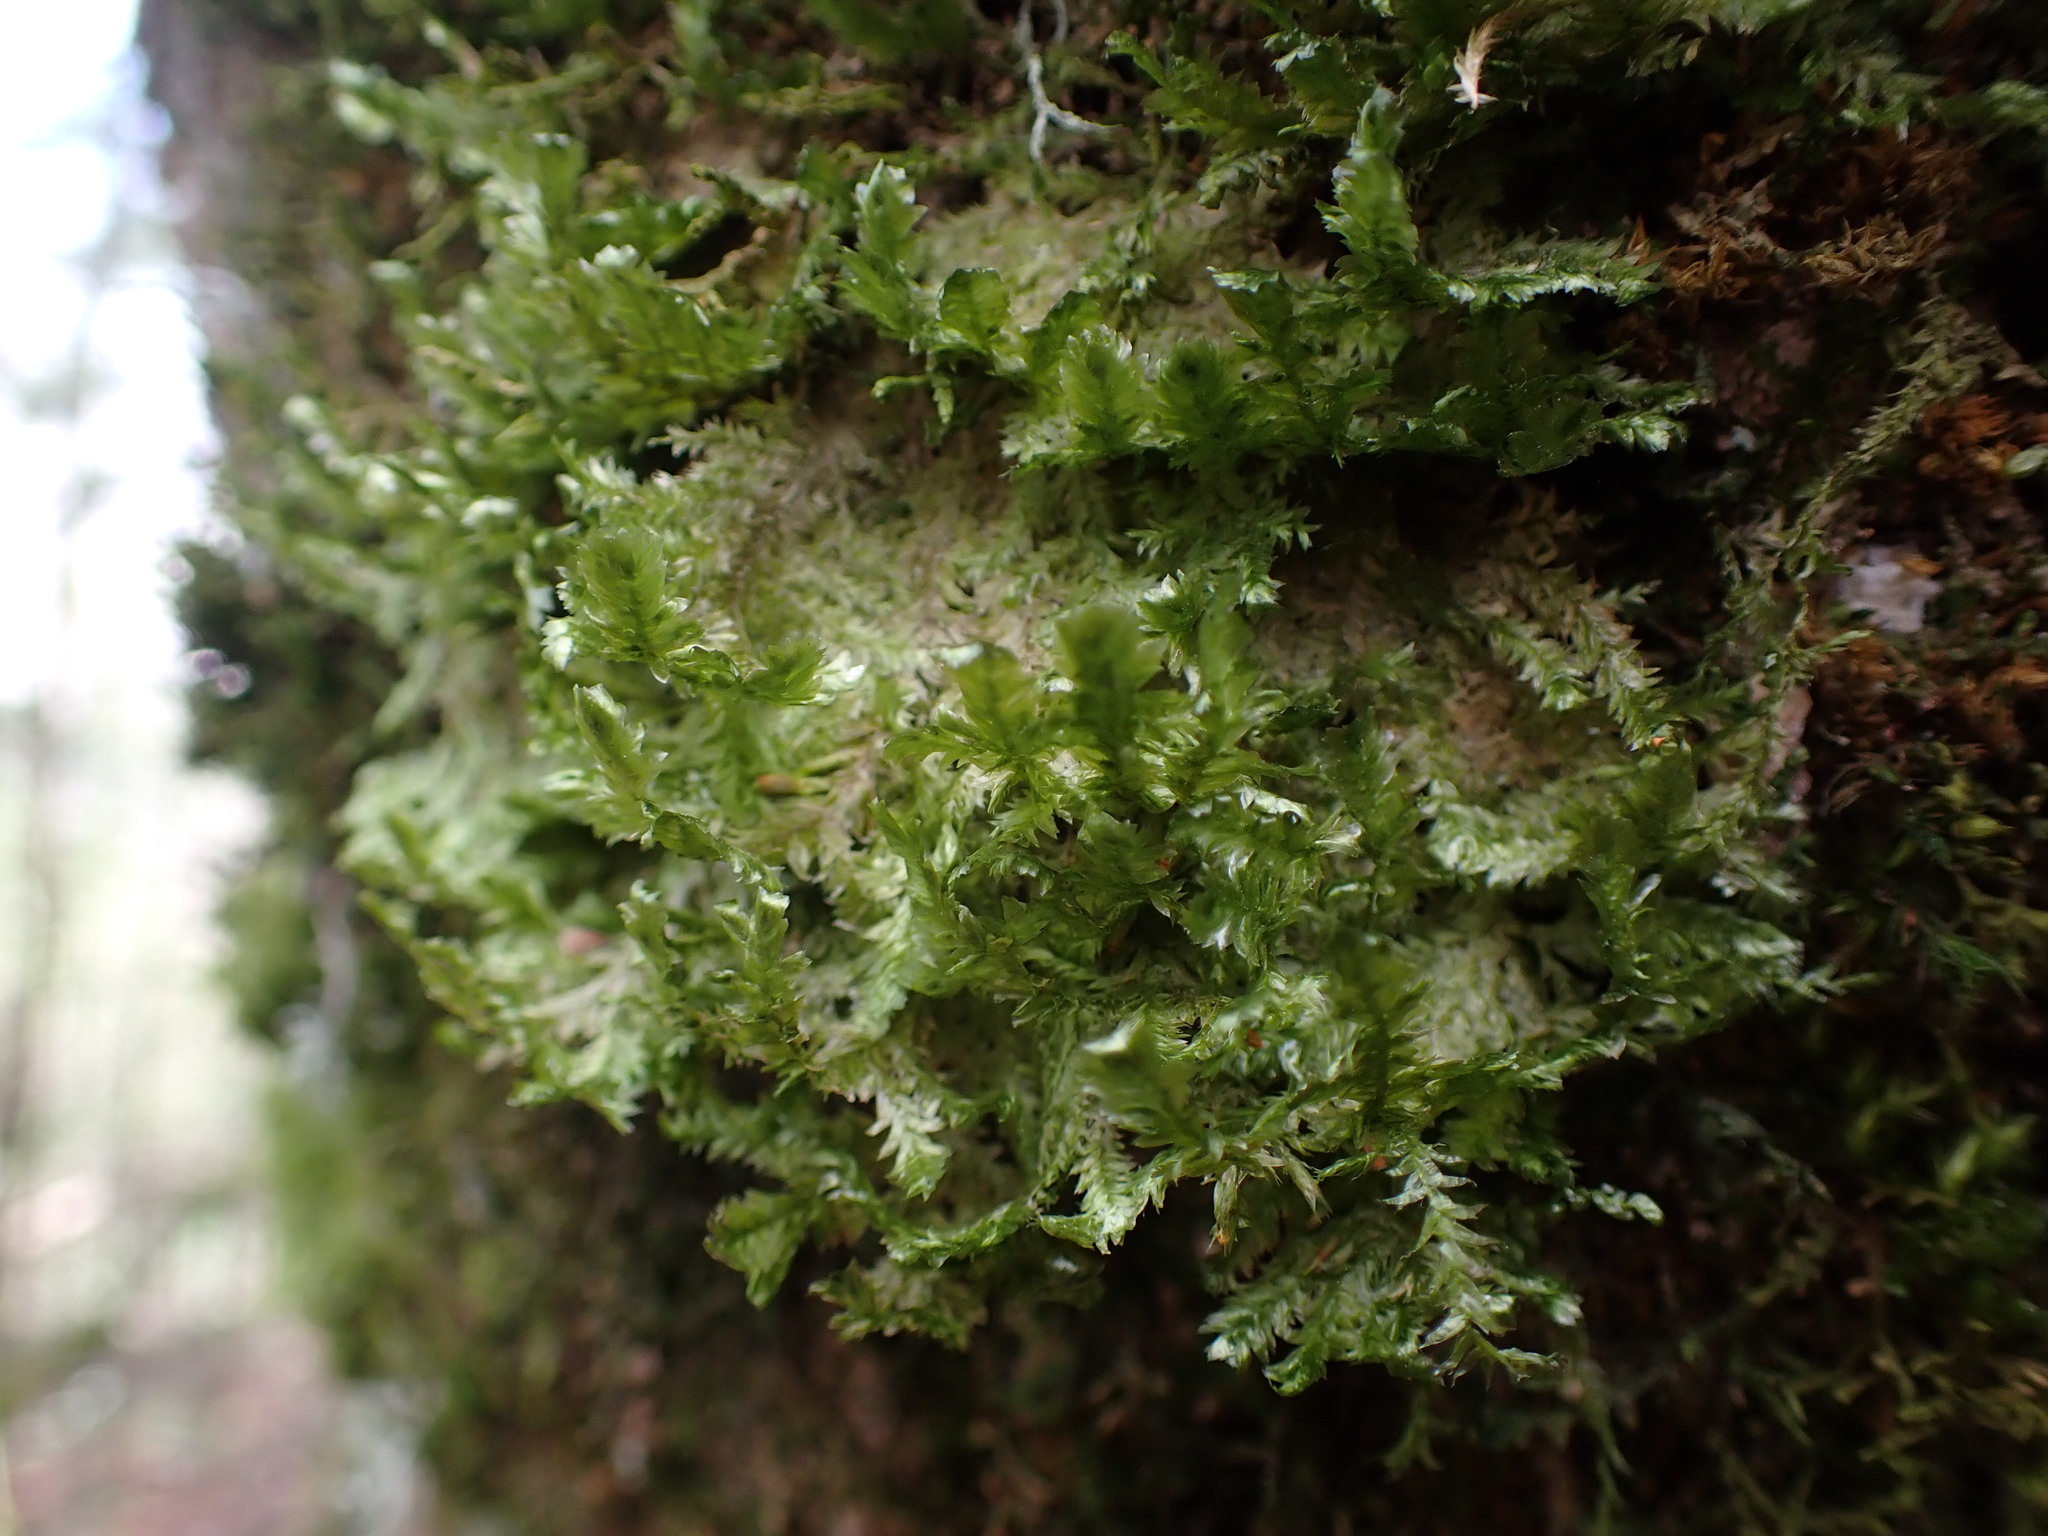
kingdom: Plantae
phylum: Bryophyta
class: Bryopsida
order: Hypnales
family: Neckeraceae
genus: Neckera
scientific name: Neckera pennata
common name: Feathery neckera
